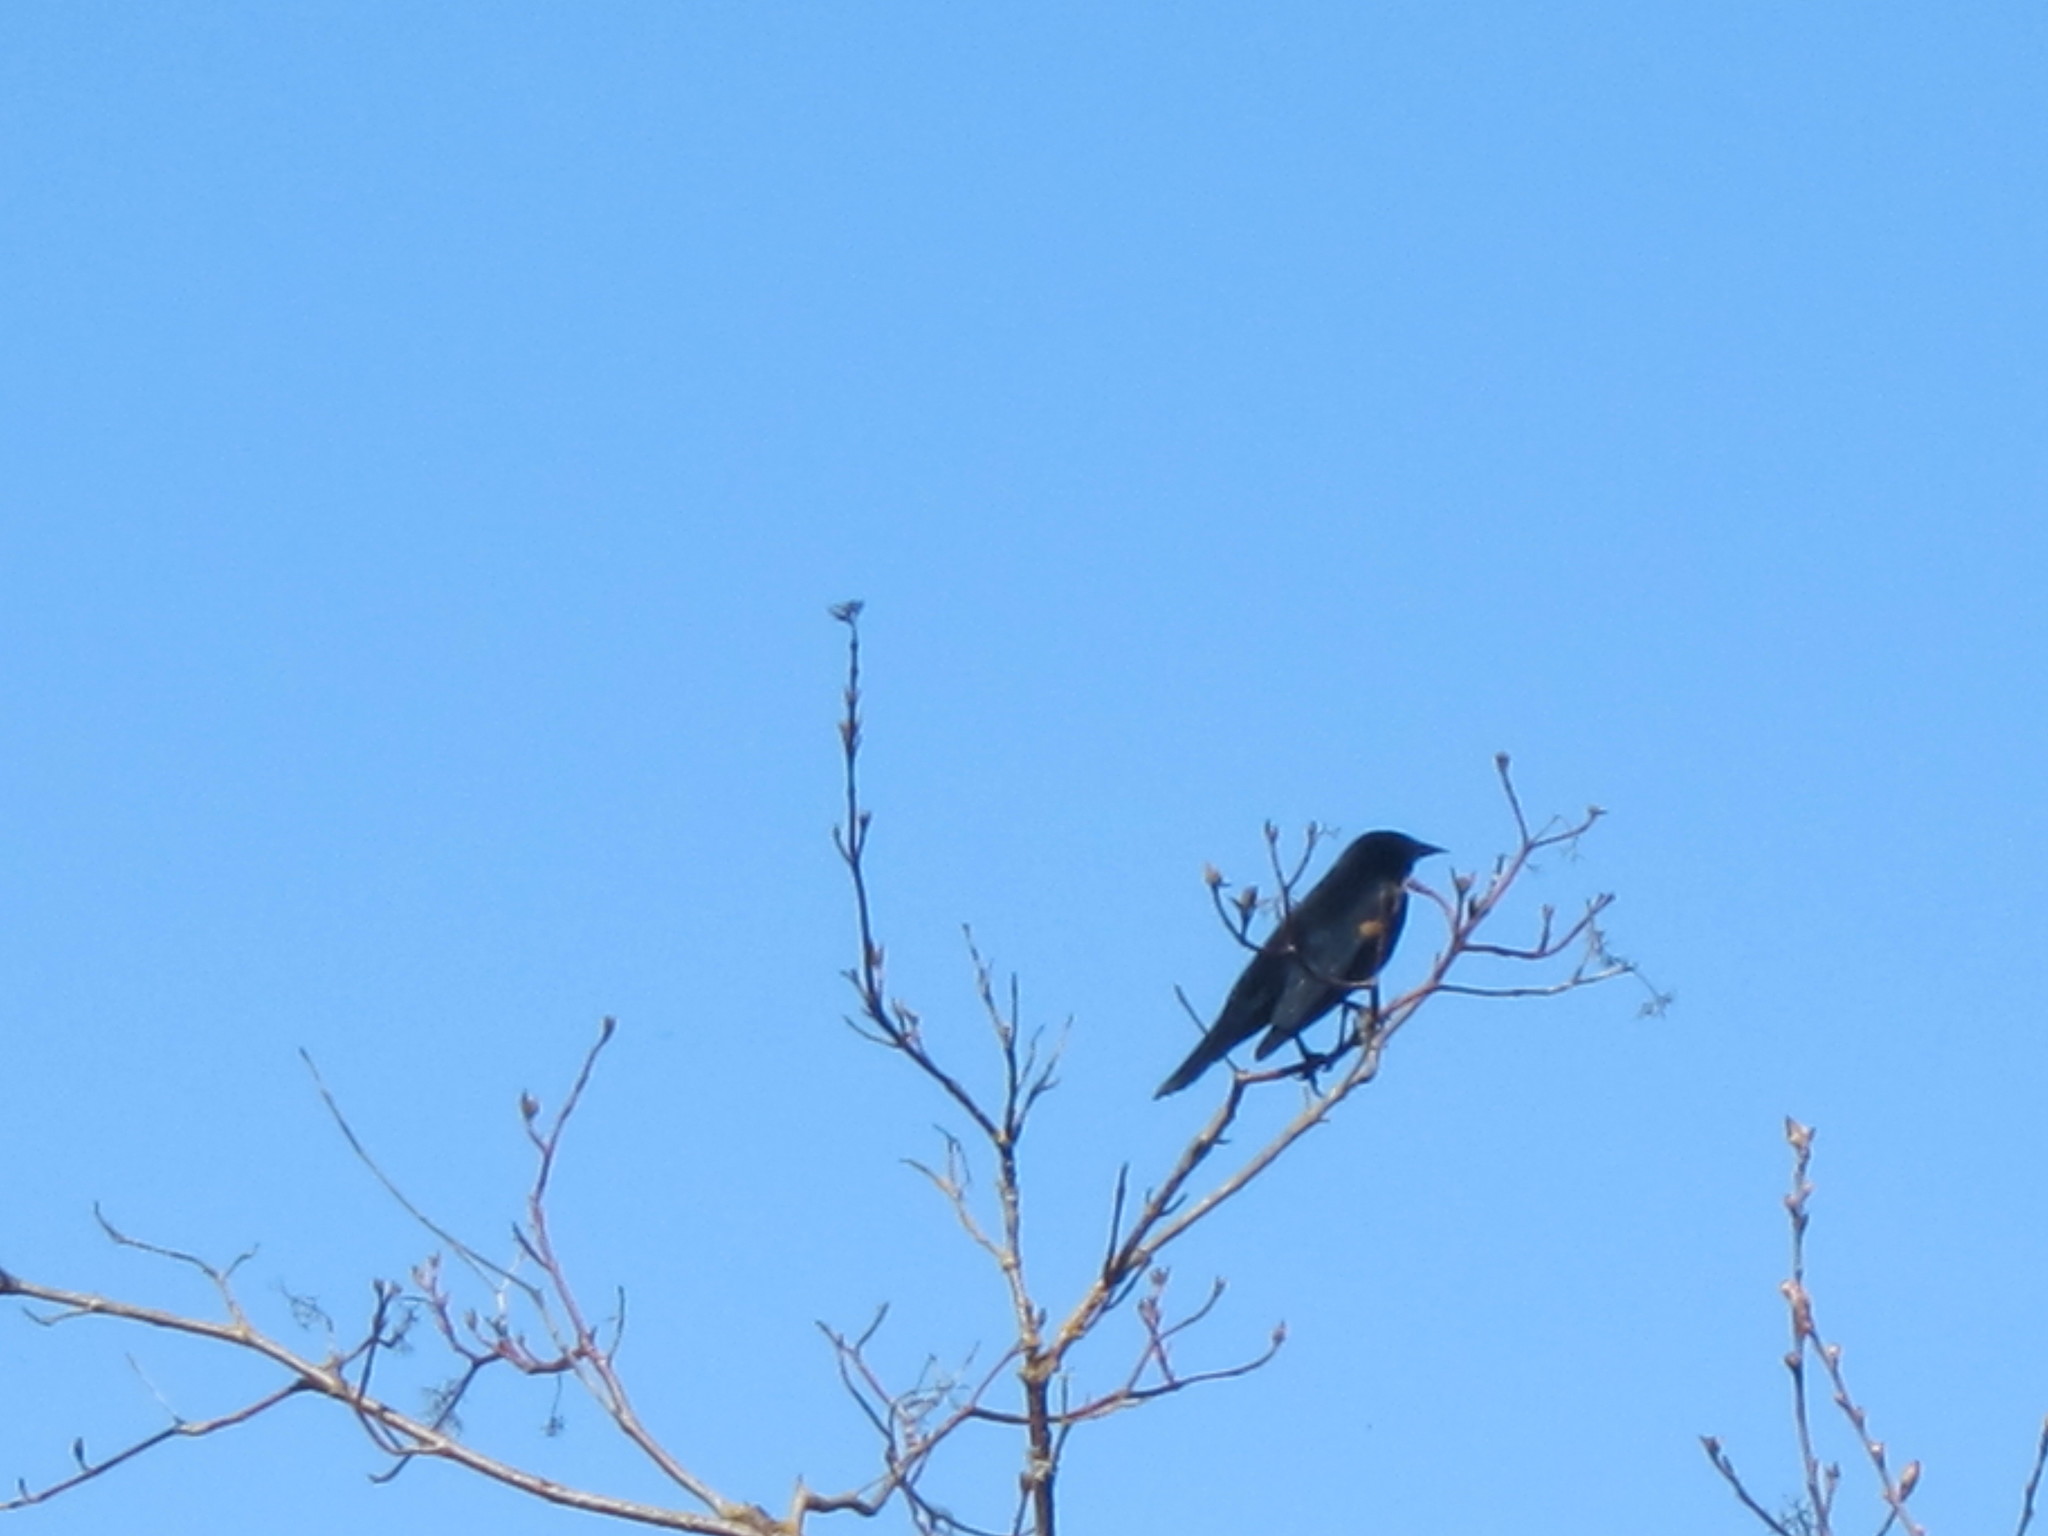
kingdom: Animalia
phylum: Chordata
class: Aves
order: Passeriformes
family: Icteridae
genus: Agelaius
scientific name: Agelaius phoeniceus
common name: Red-winged blackbird
